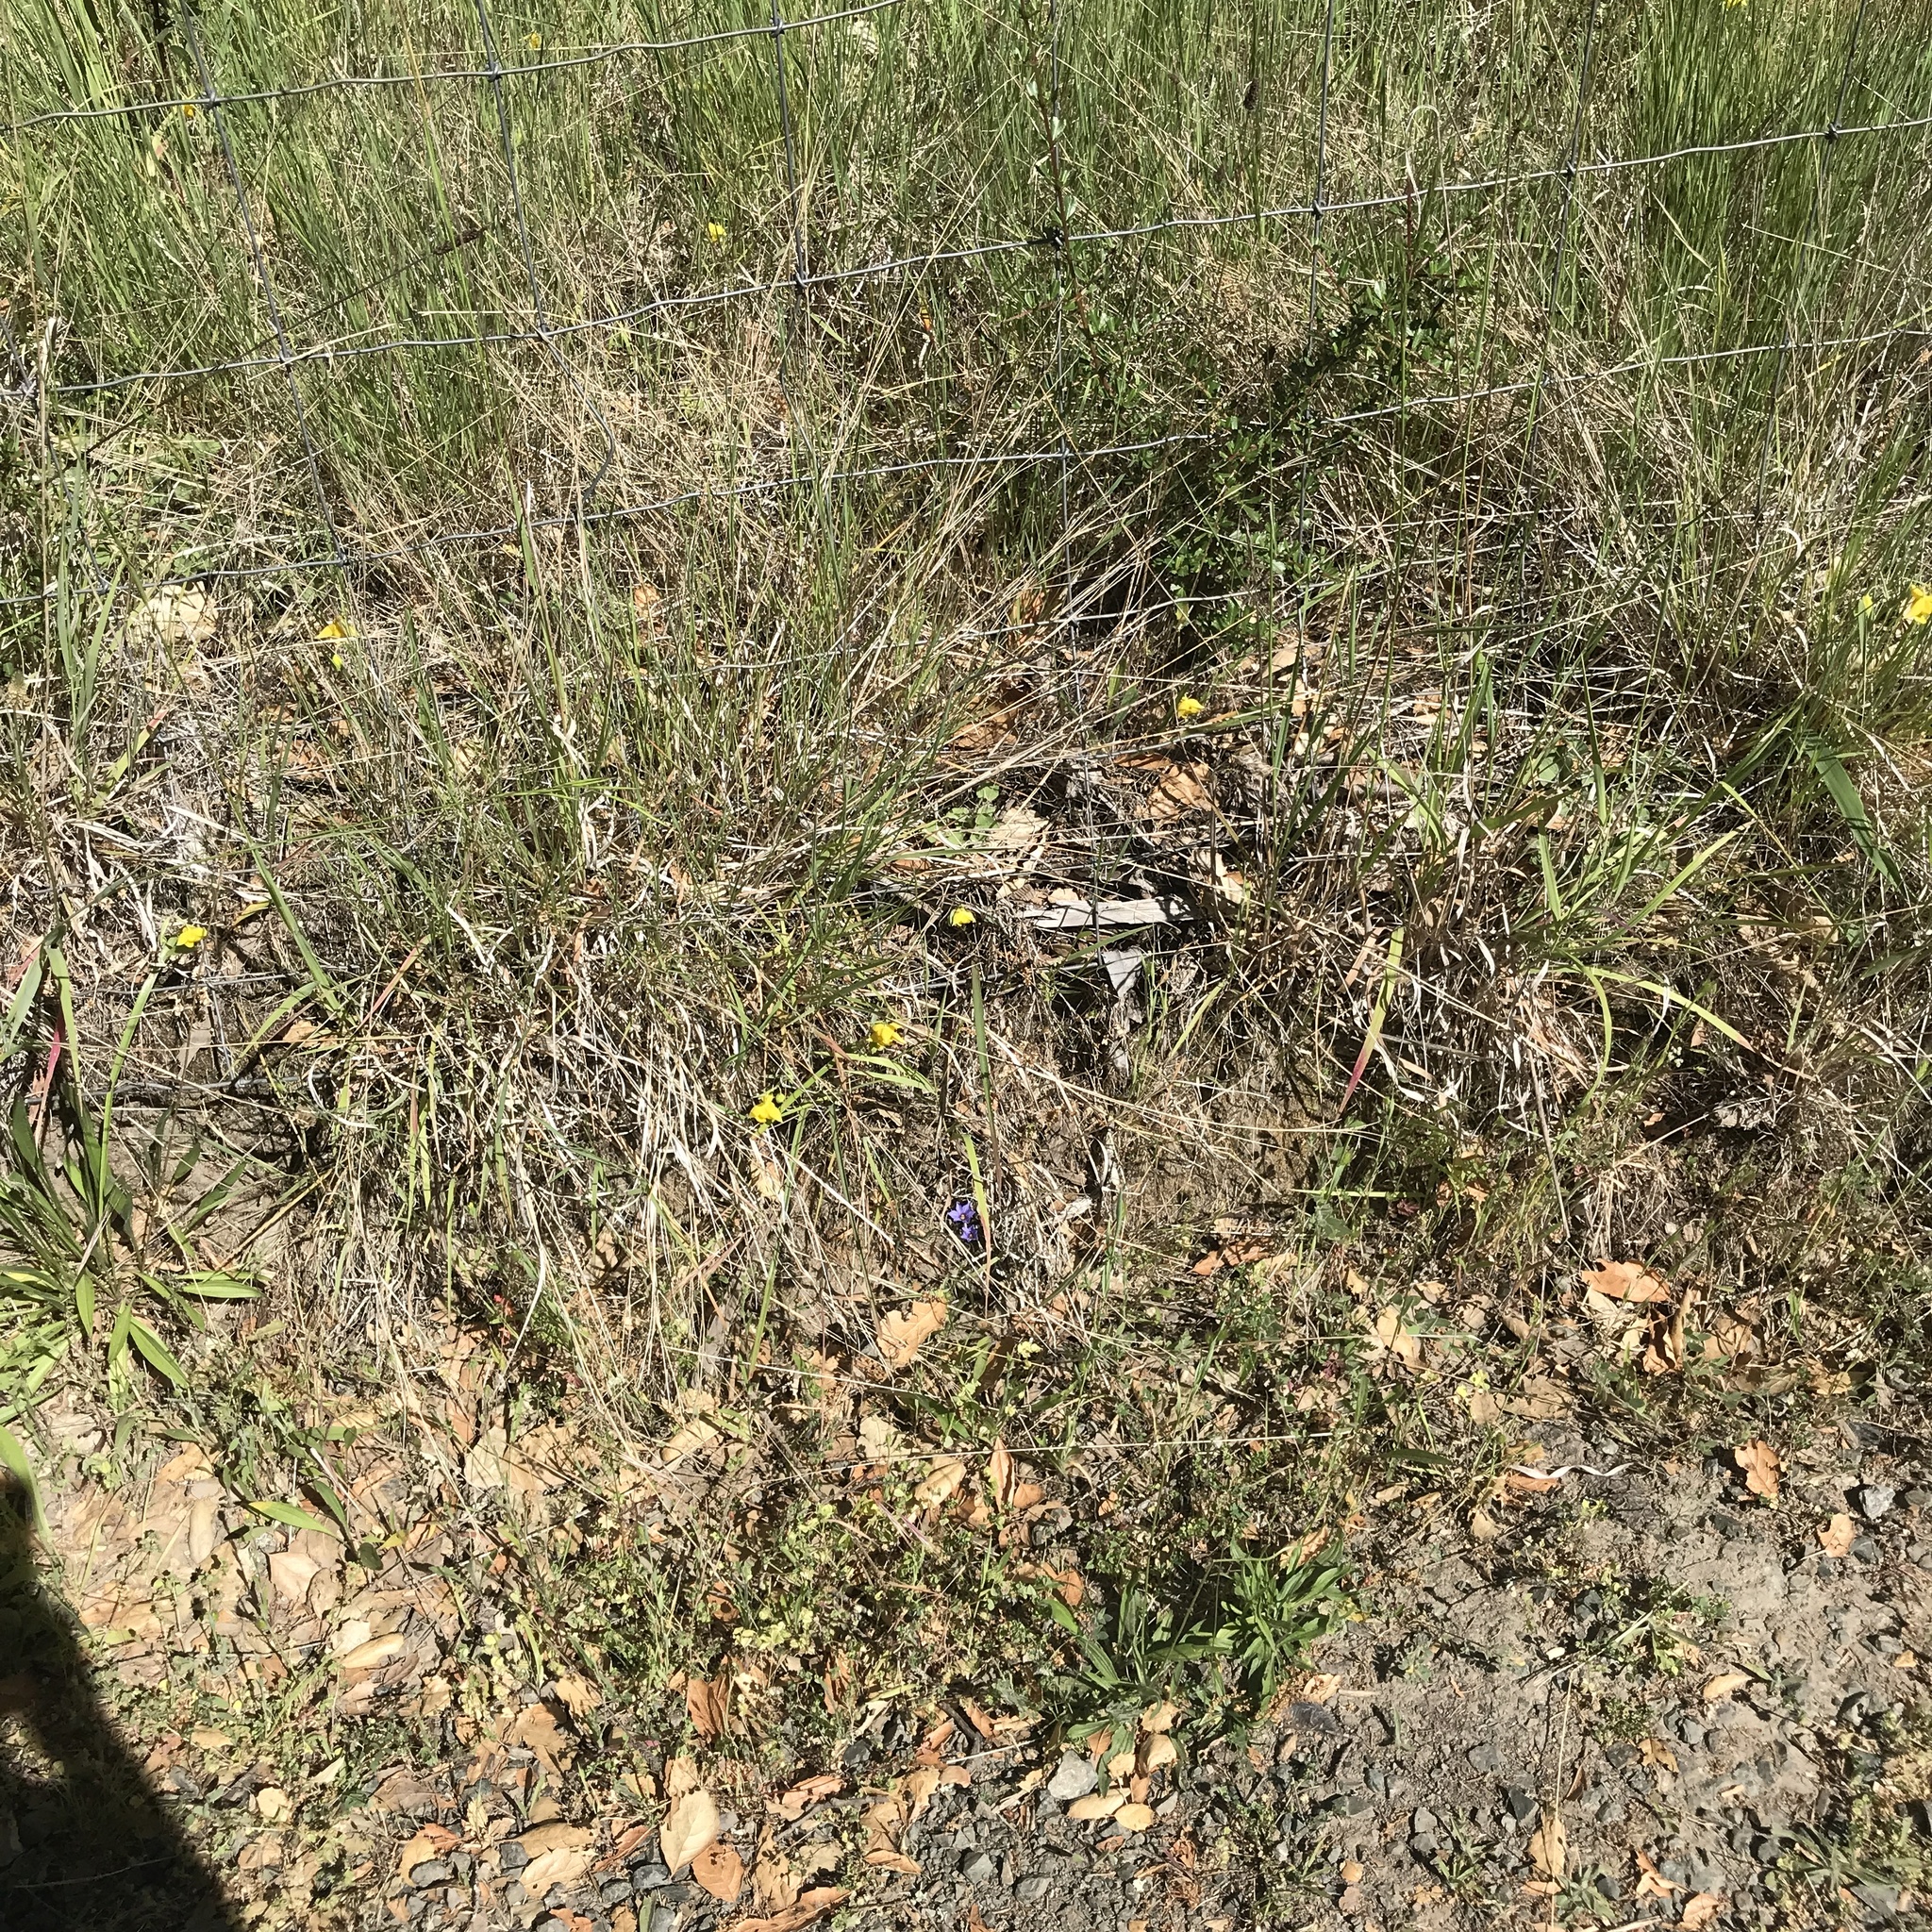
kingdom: Plantae
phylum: Tracheophyta
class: Liliopsida
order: Liliales
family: Liliaceae
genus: Calochortus
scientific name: Calochortus amabilis
